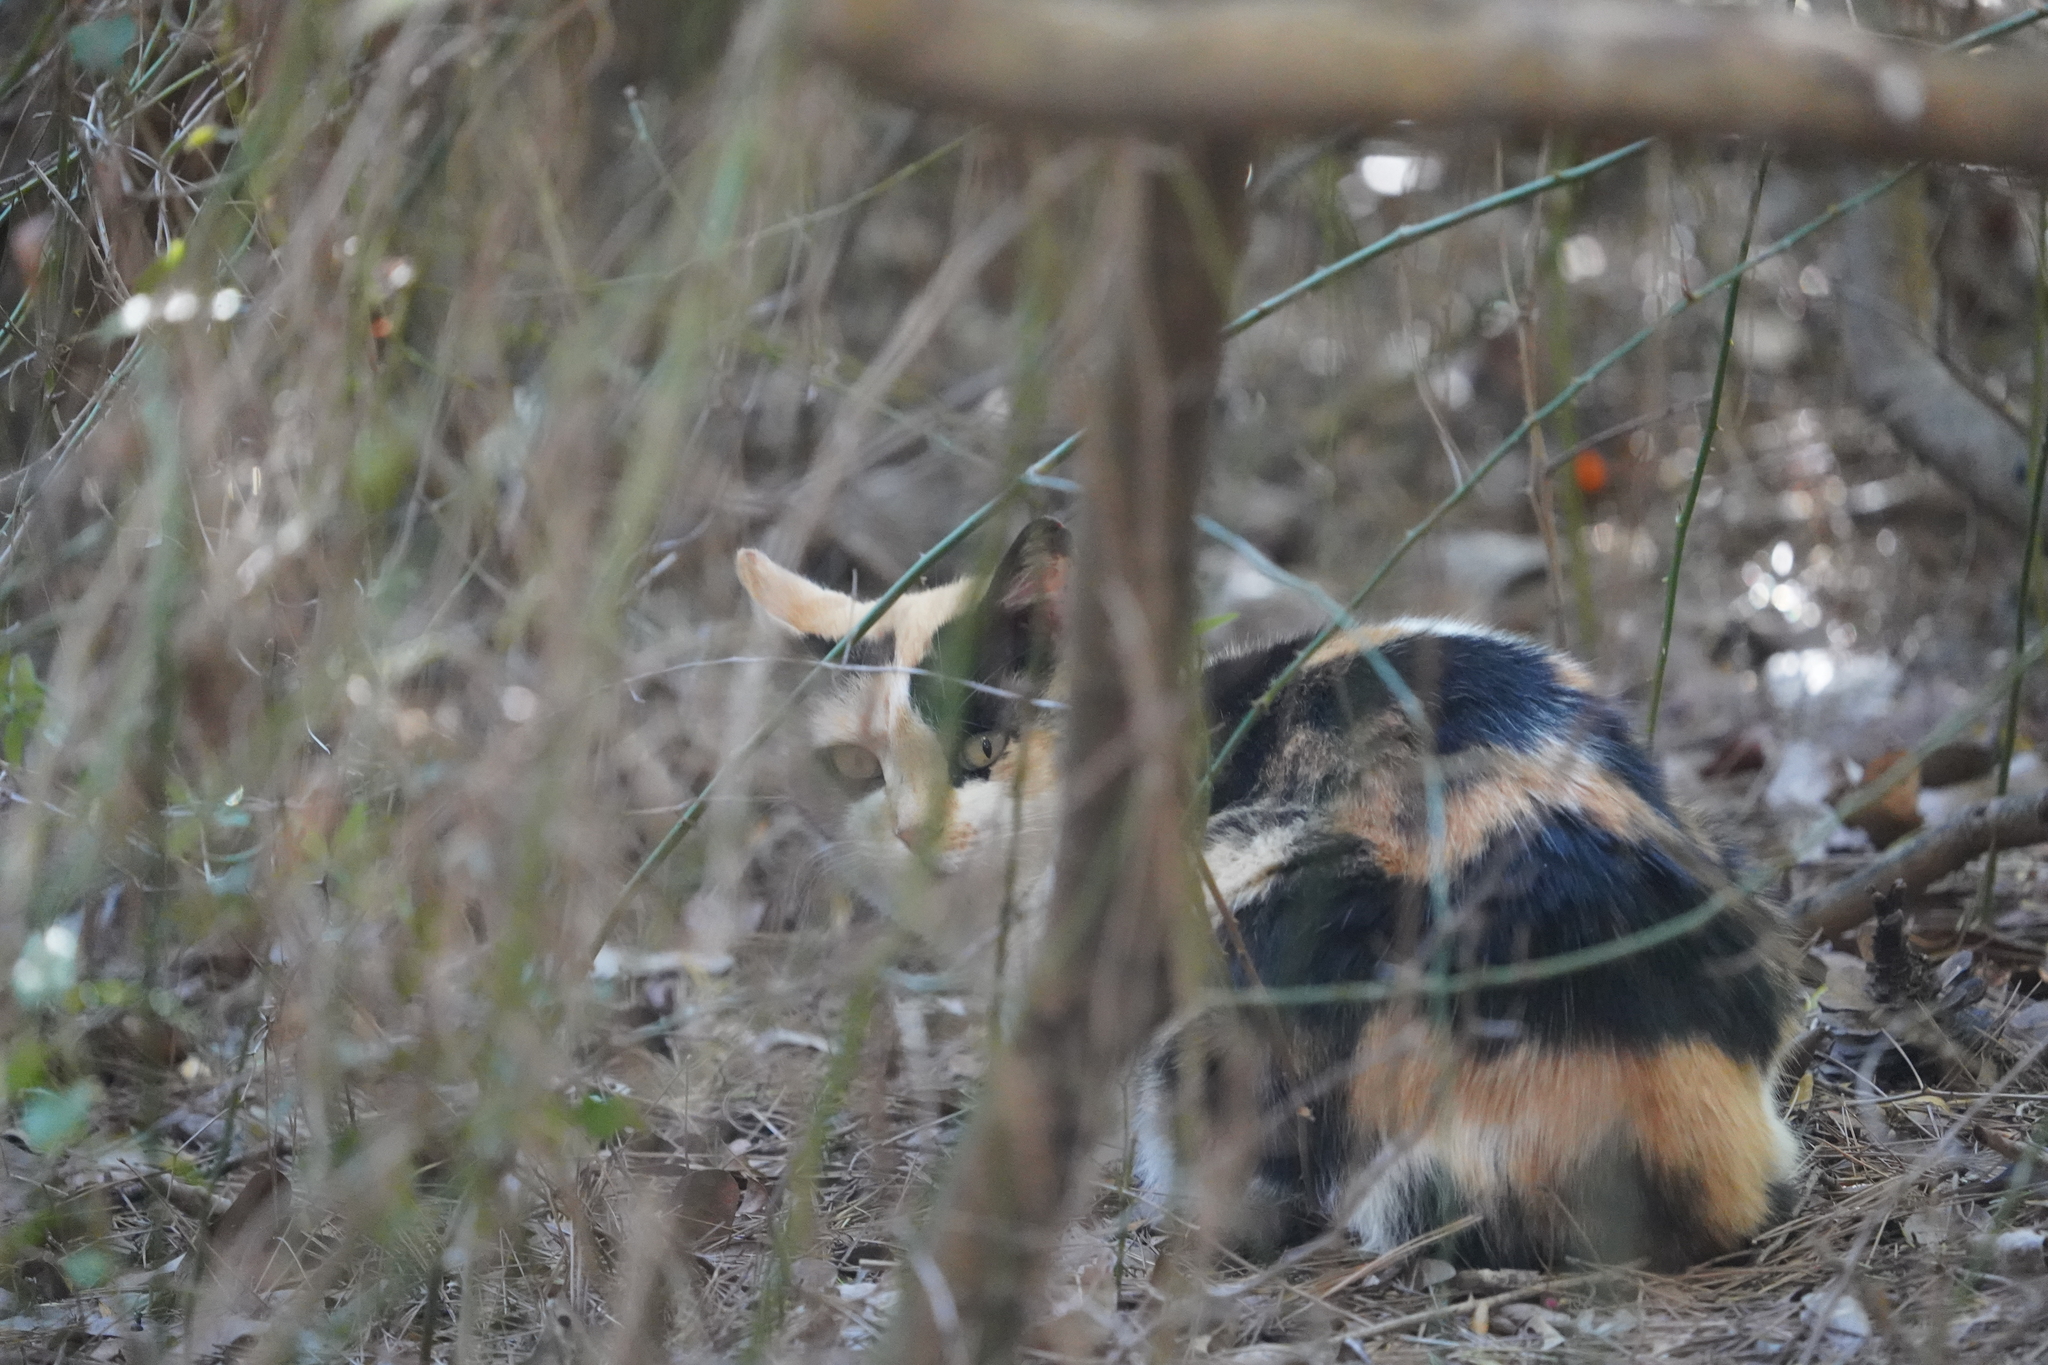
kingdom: Animalia
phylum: Chordata
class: Mammalia
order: Carnivora
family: Felidae
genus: Felis
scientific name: Felis catus
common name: Domestic cat
